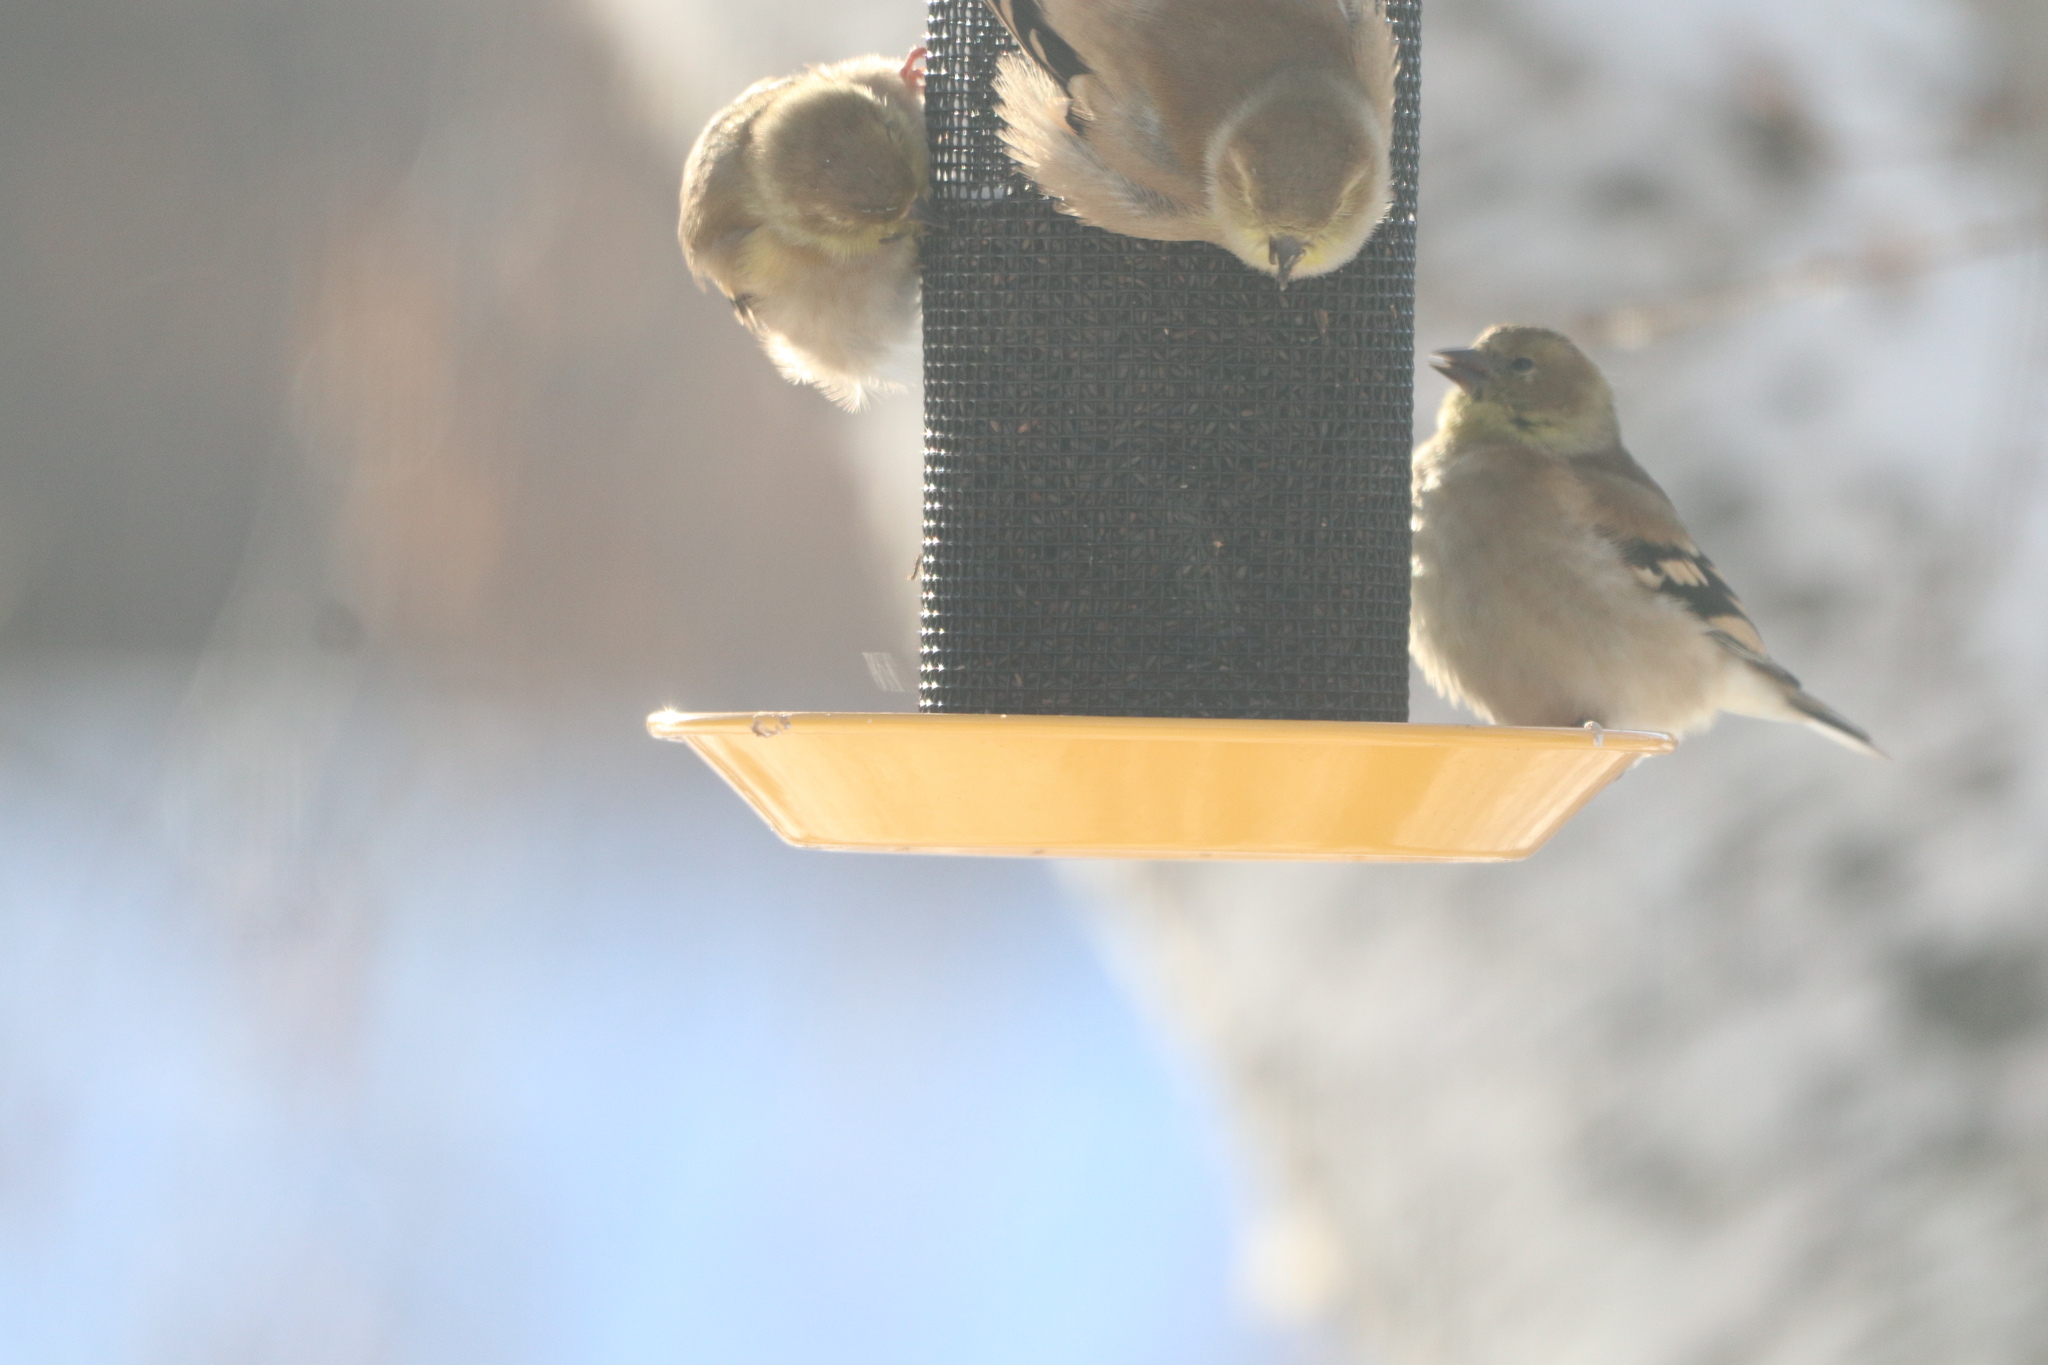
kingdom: Animalia
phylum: Chordata
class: Aves
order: Passeriformes
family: Fringillidae
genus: Spinus
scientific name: Spinus tristis
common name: American goldfinch
